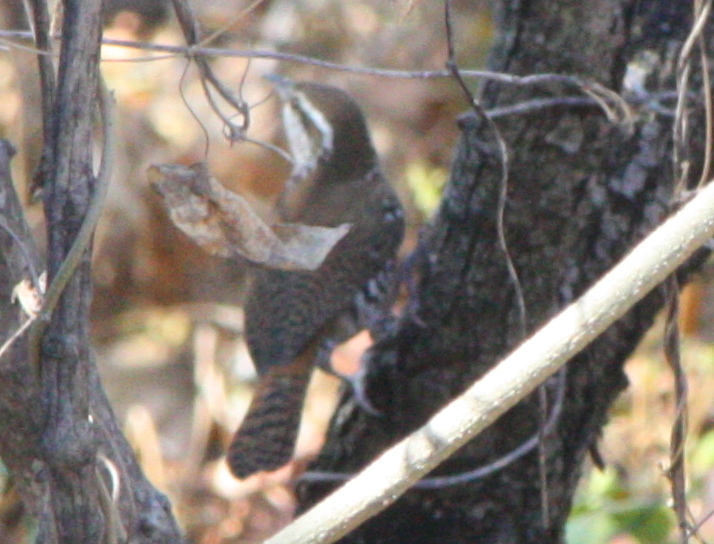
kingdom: Animalia
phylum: Chordata
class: Aves
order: Passeriformes
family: Troglodytidae
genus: Thryophilus
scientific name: Thryophilus pleurostictus
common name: Banded wren
